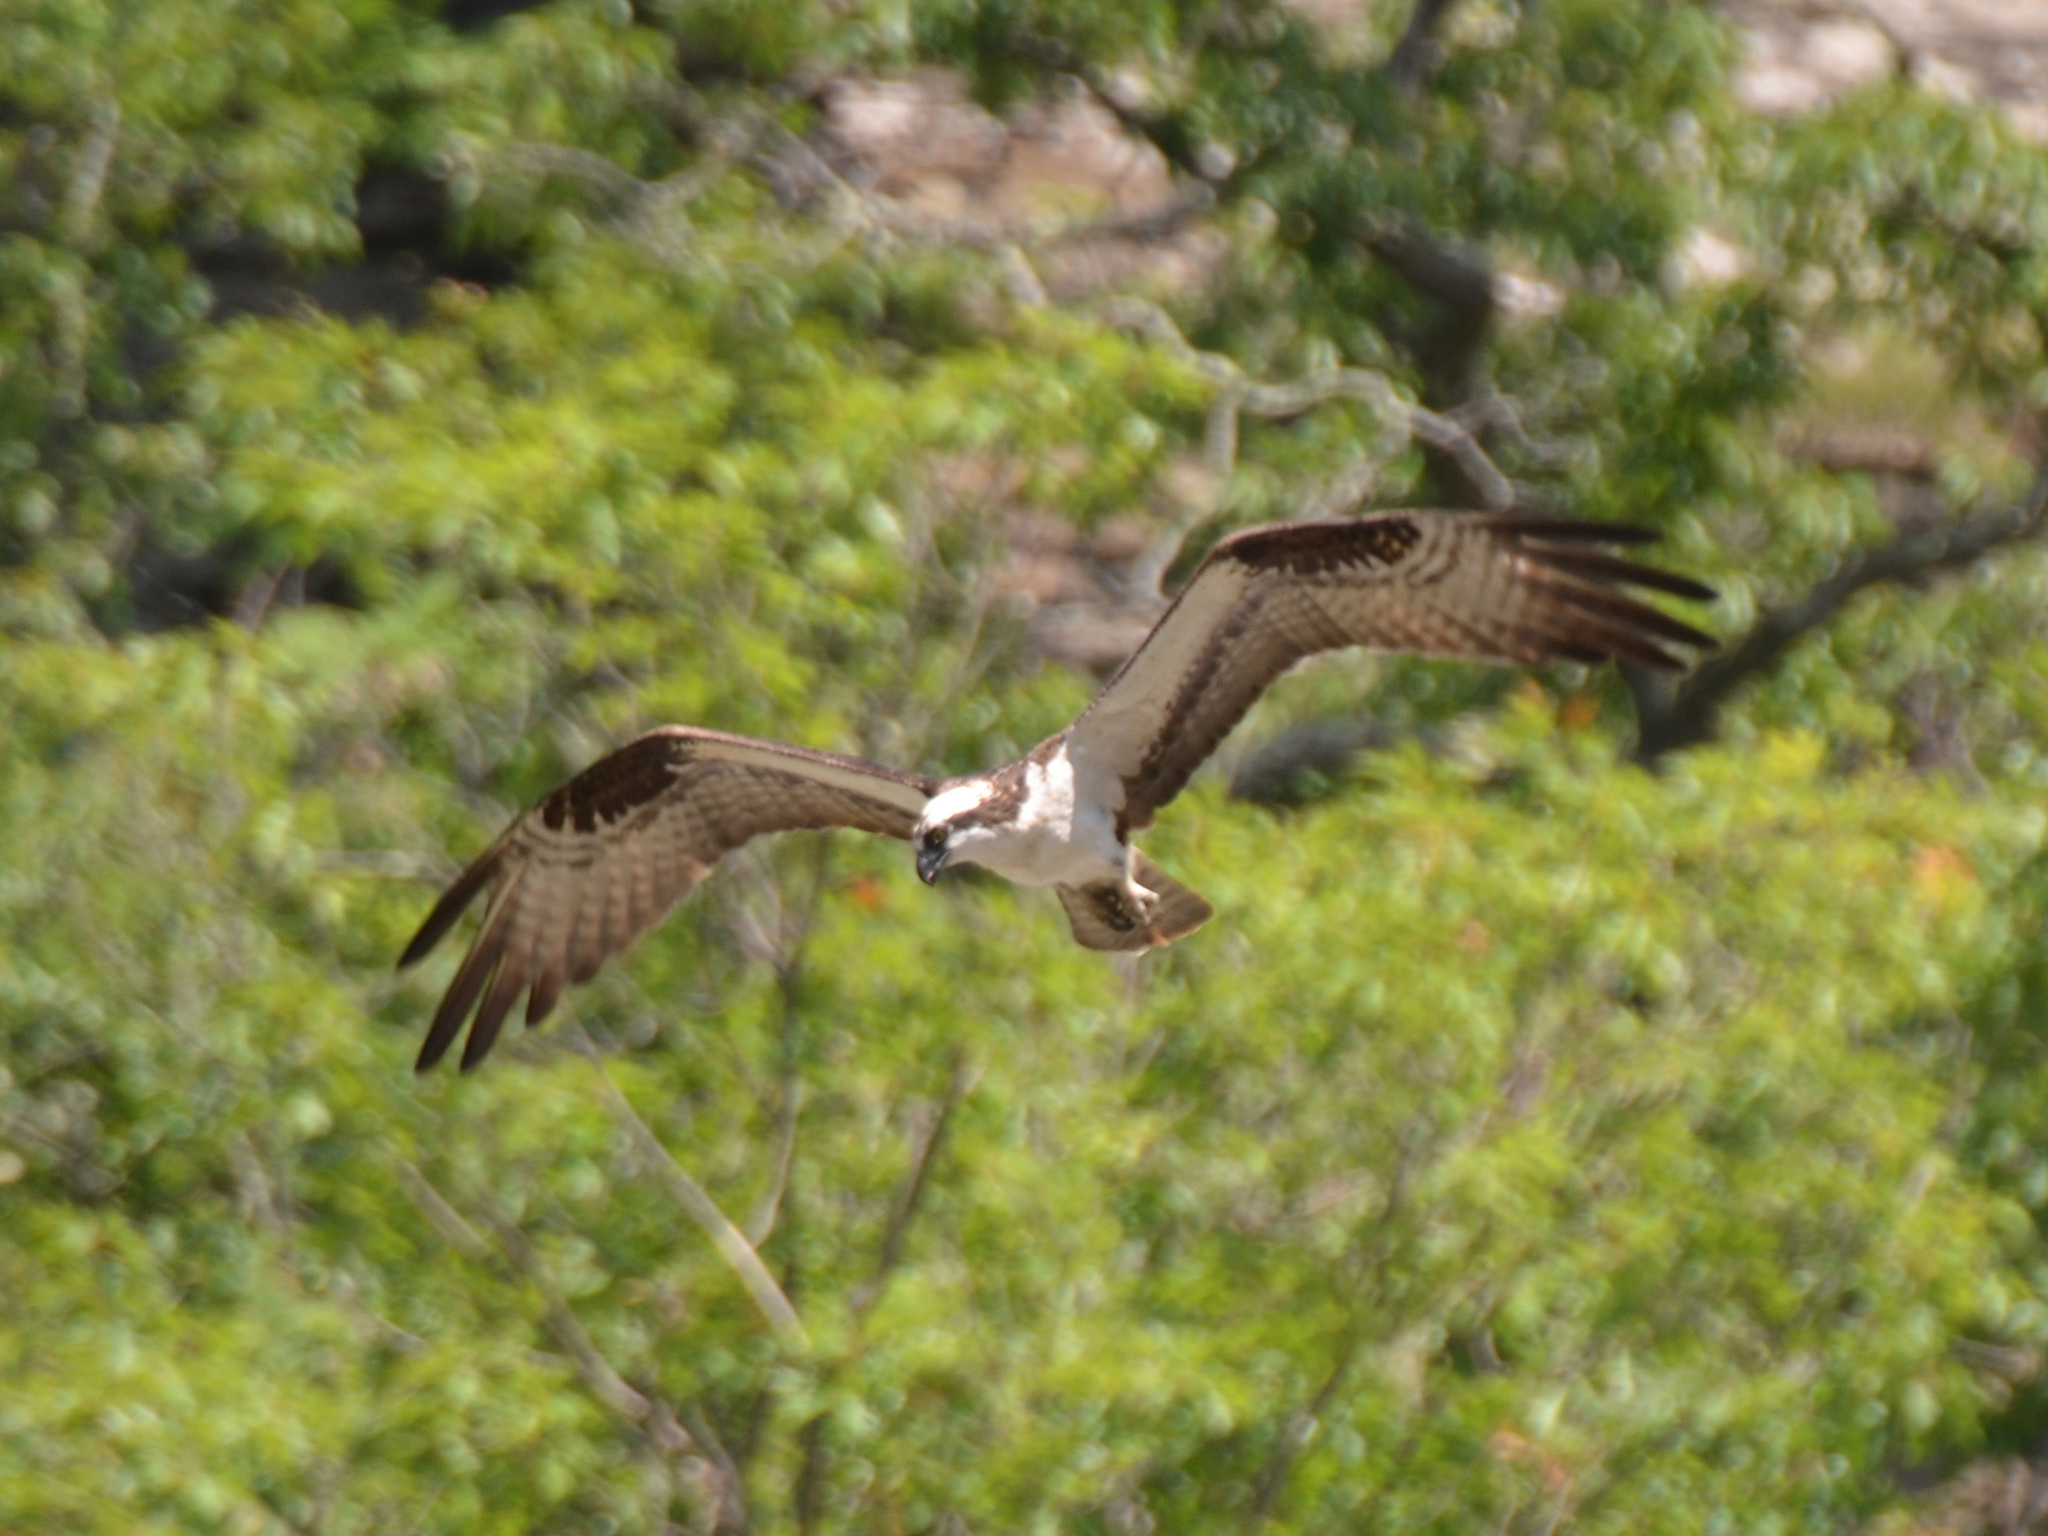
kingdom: Animalia
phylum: Chordata
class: Aves
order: Accipitriformes
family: Pandionidae
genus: Pandion
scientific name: Pandion haliaetus
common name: Osprey
